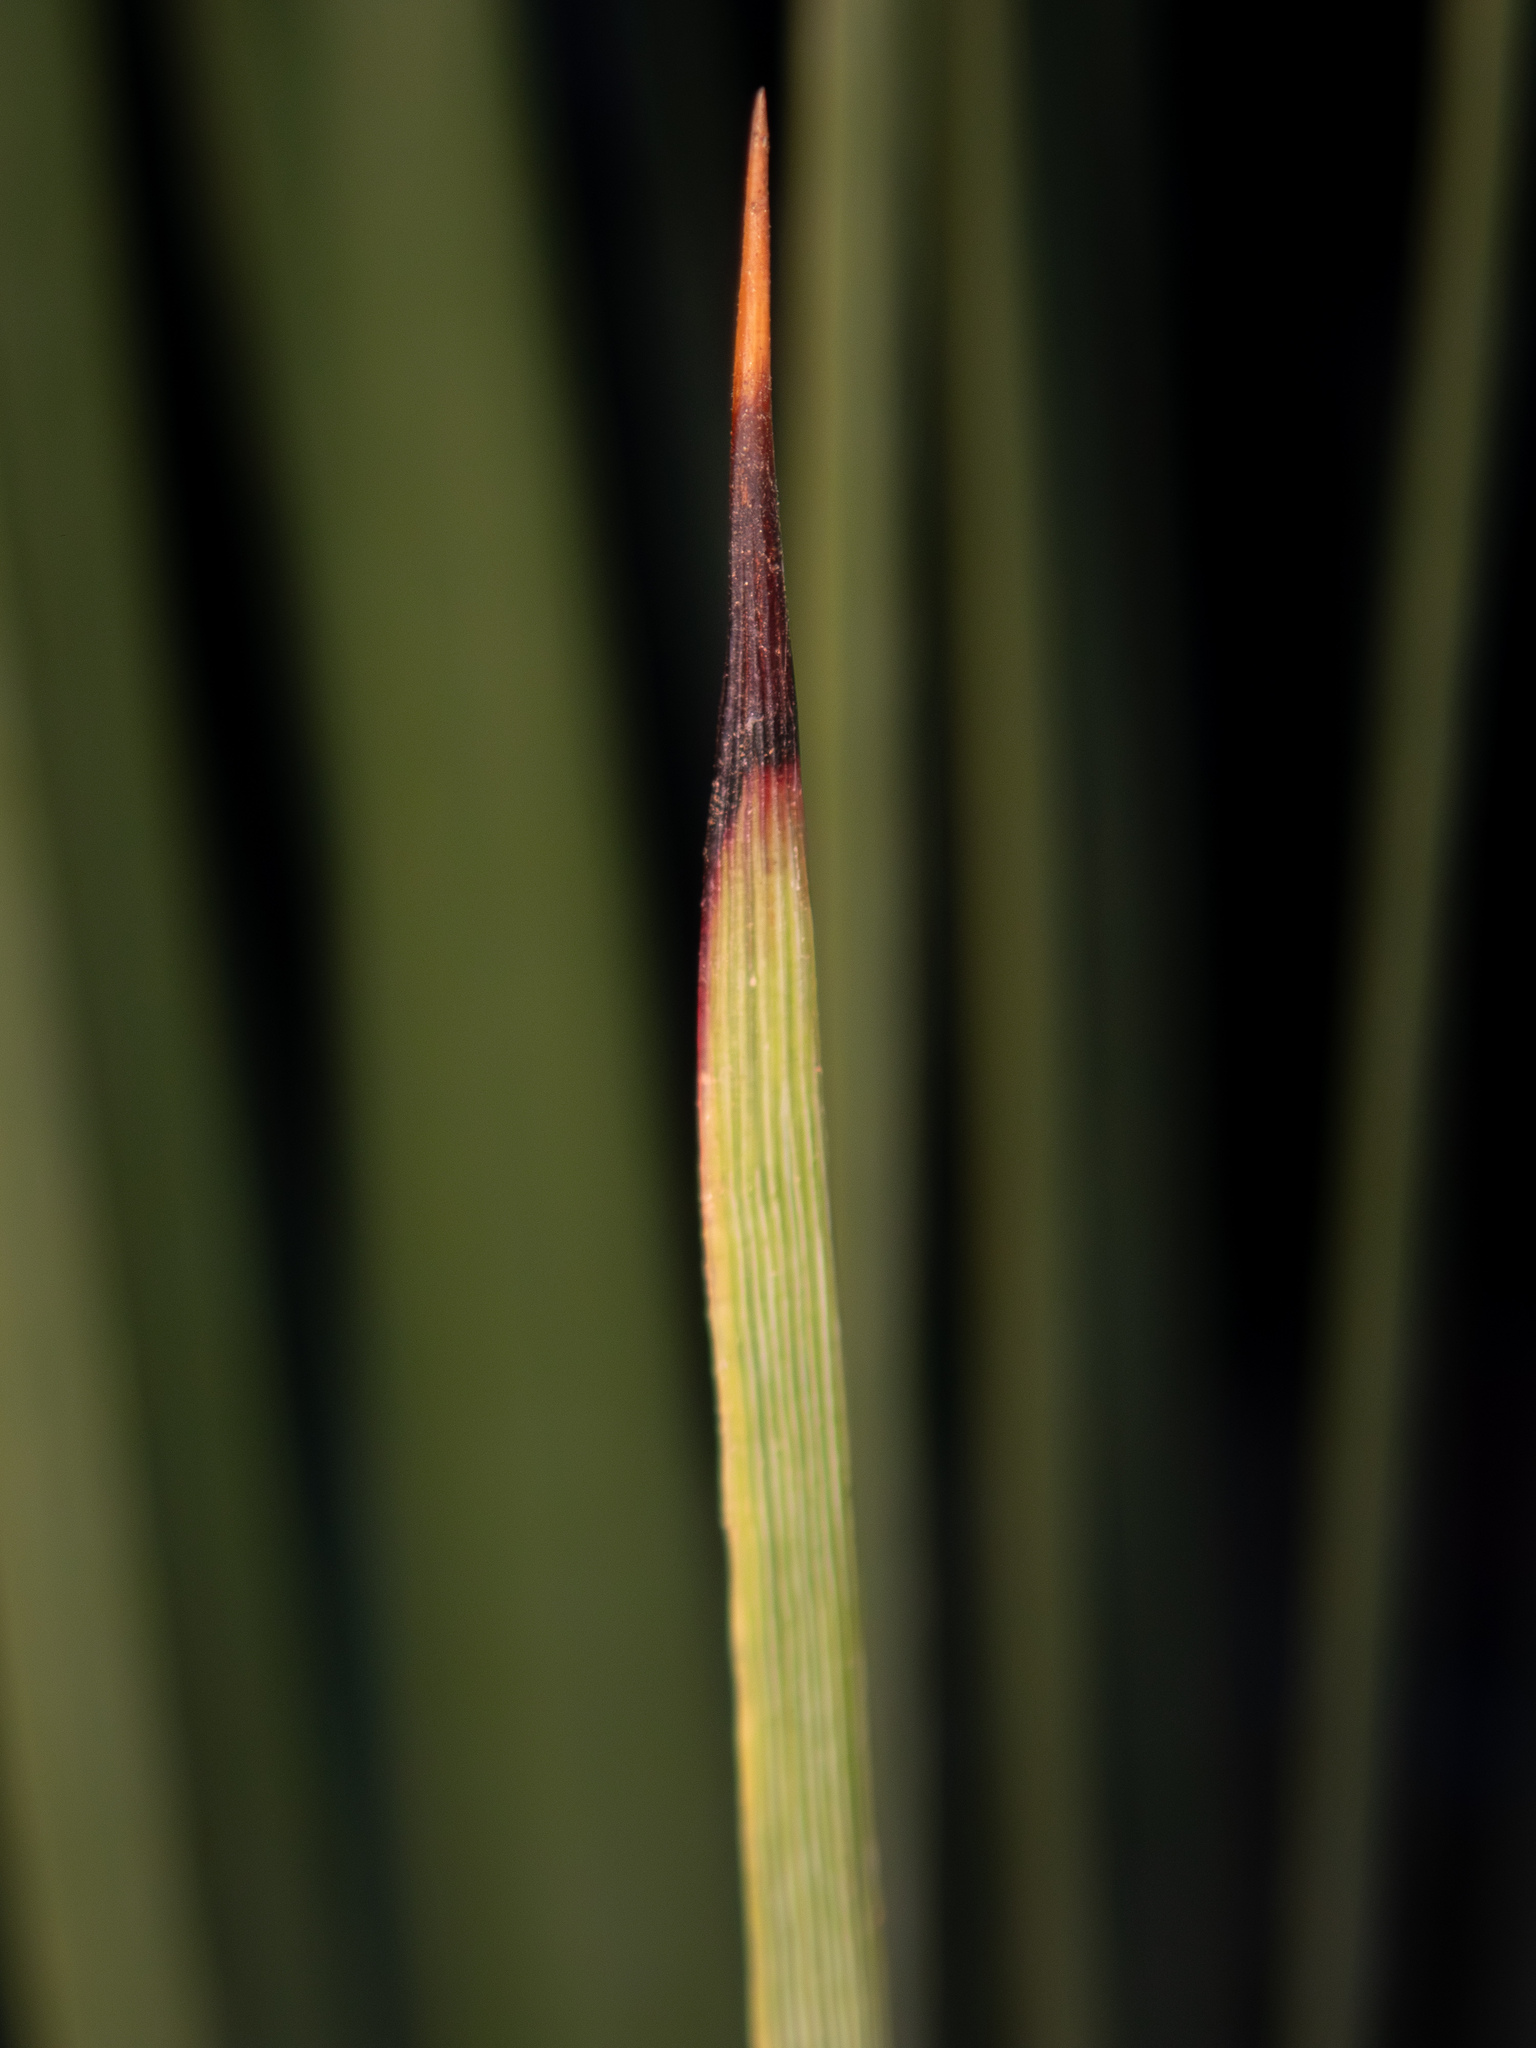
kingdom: Plantae
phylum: Tracheophyta
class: Liliopsida
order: Asparagales
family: Asparagaceae
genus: Hesperoyucca
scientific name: Hesperoyucca whipplei
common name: Our lord's-candle
